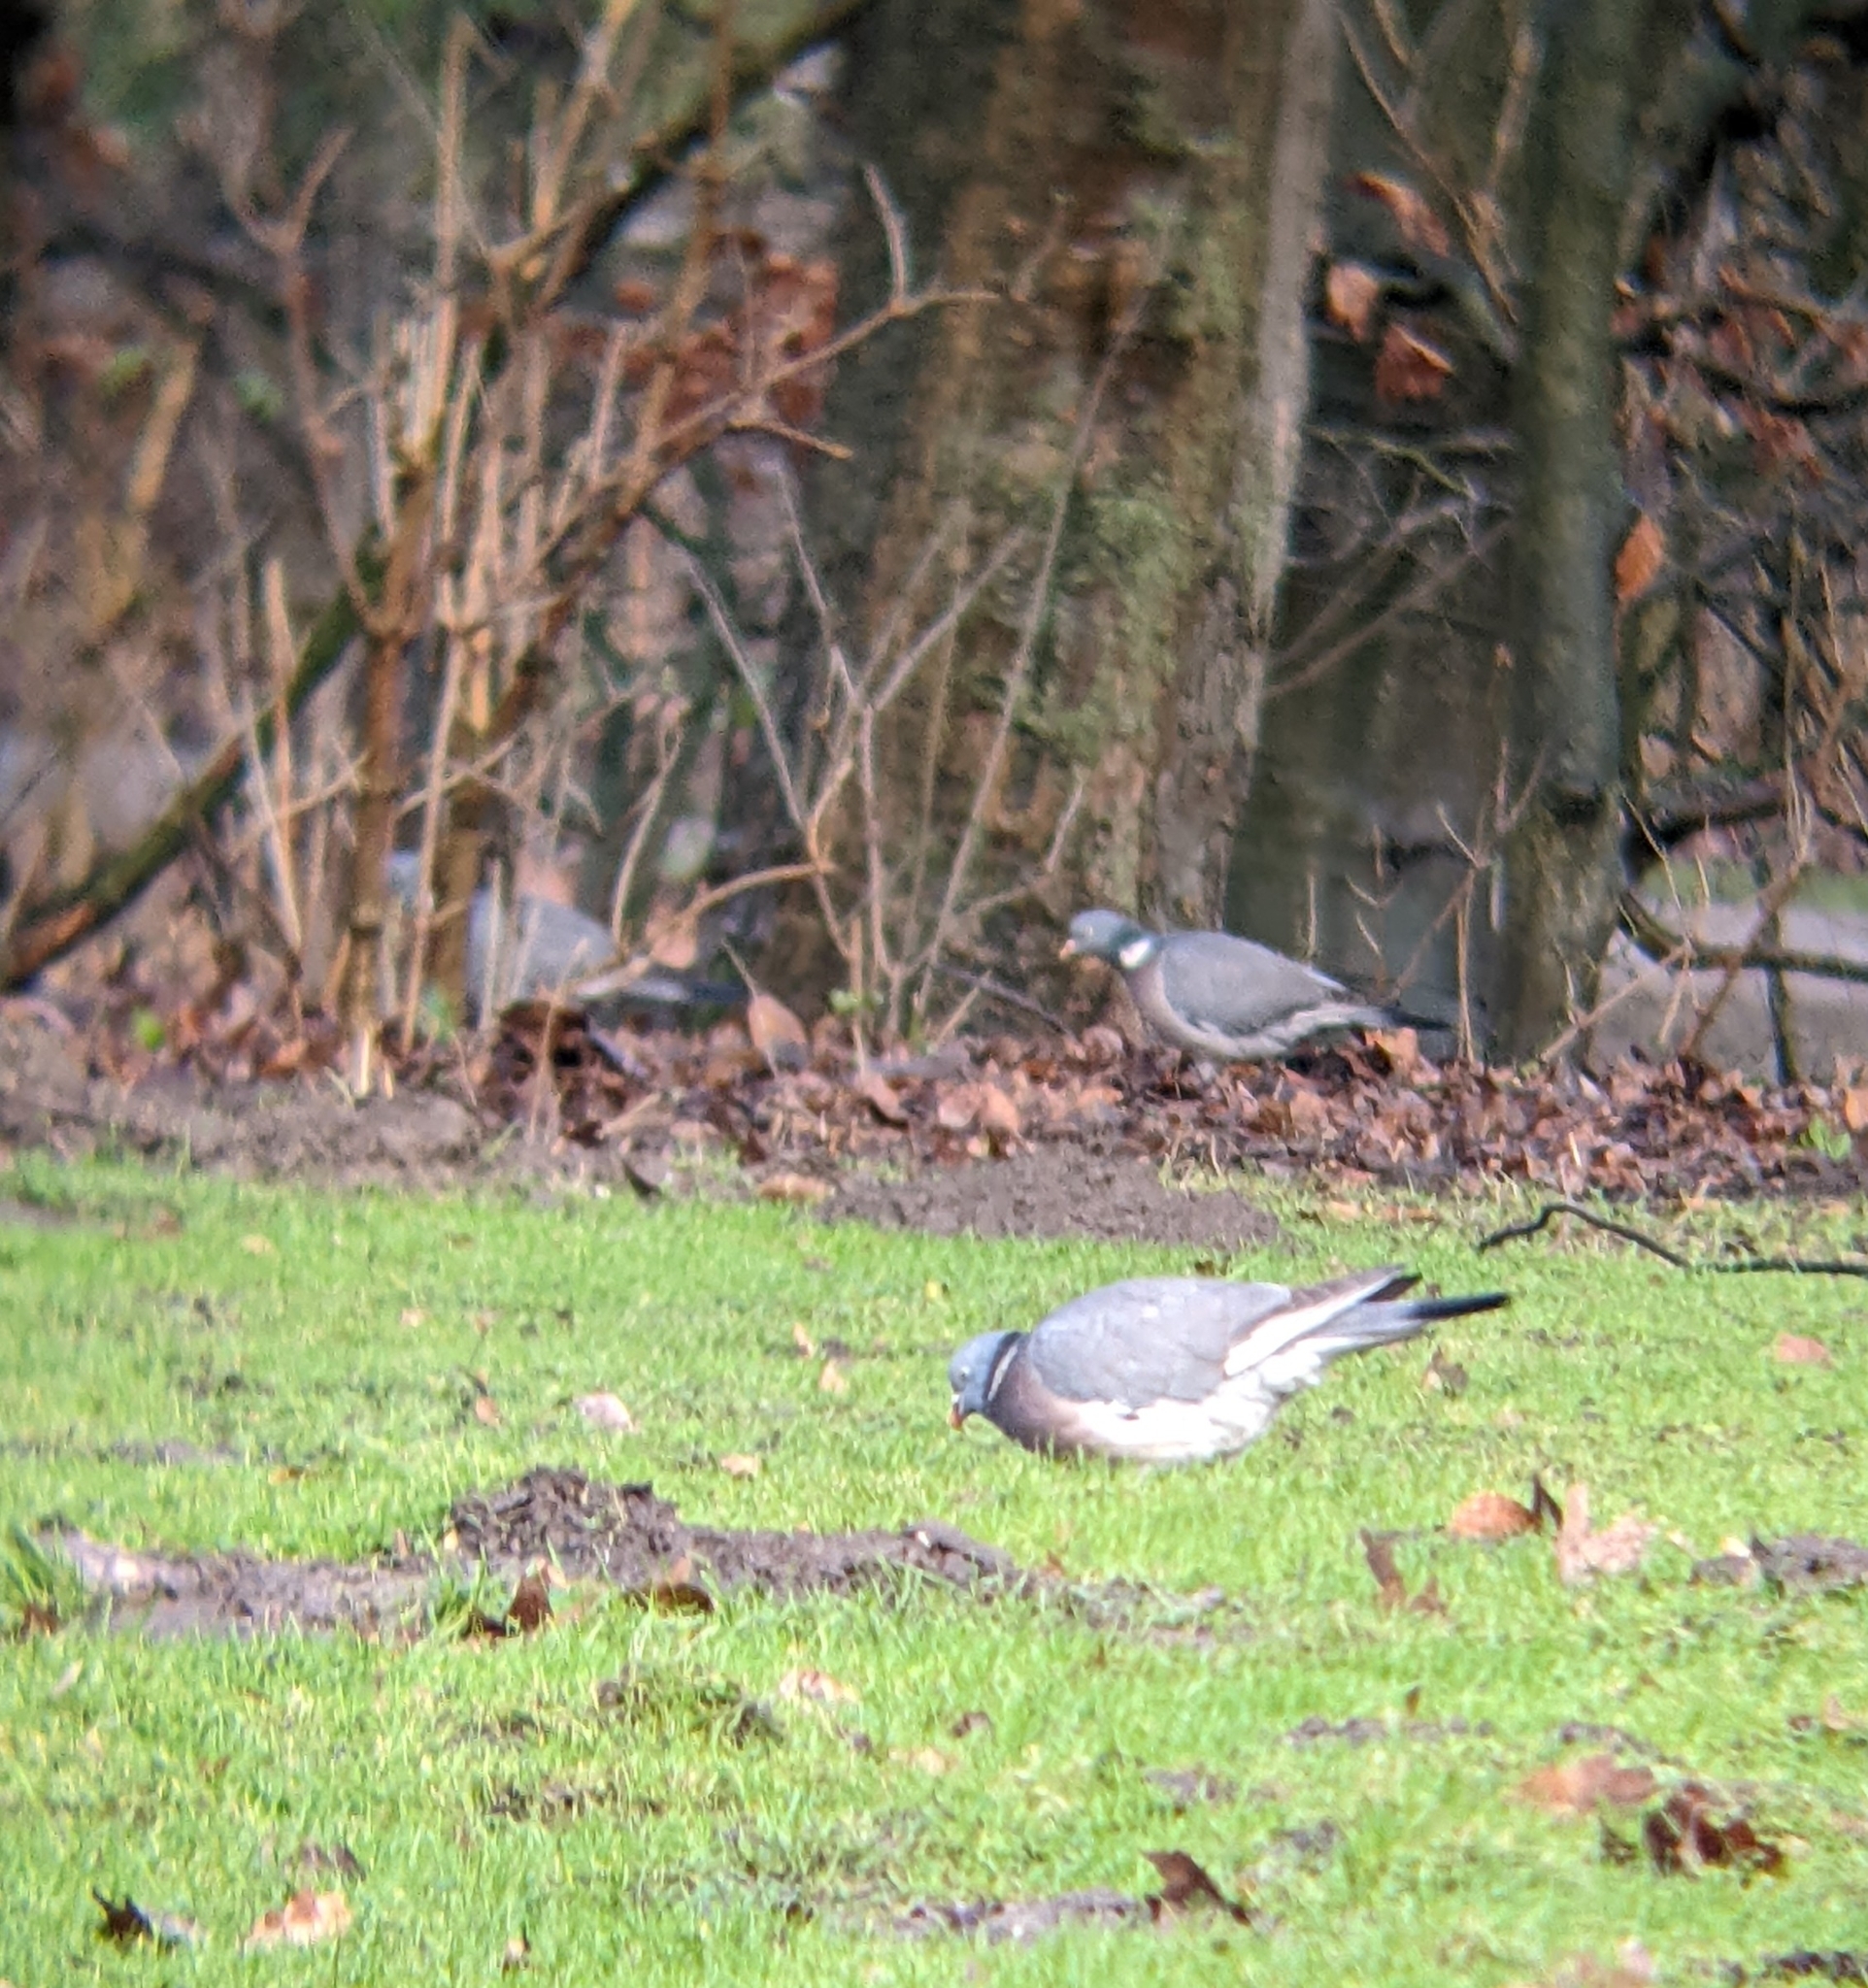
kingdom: Animalia
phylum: Chordata
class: Aves
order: Columbiformes
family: Columbidae
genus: Columba
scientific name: Columba palumbus
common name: Common wood pigeon
